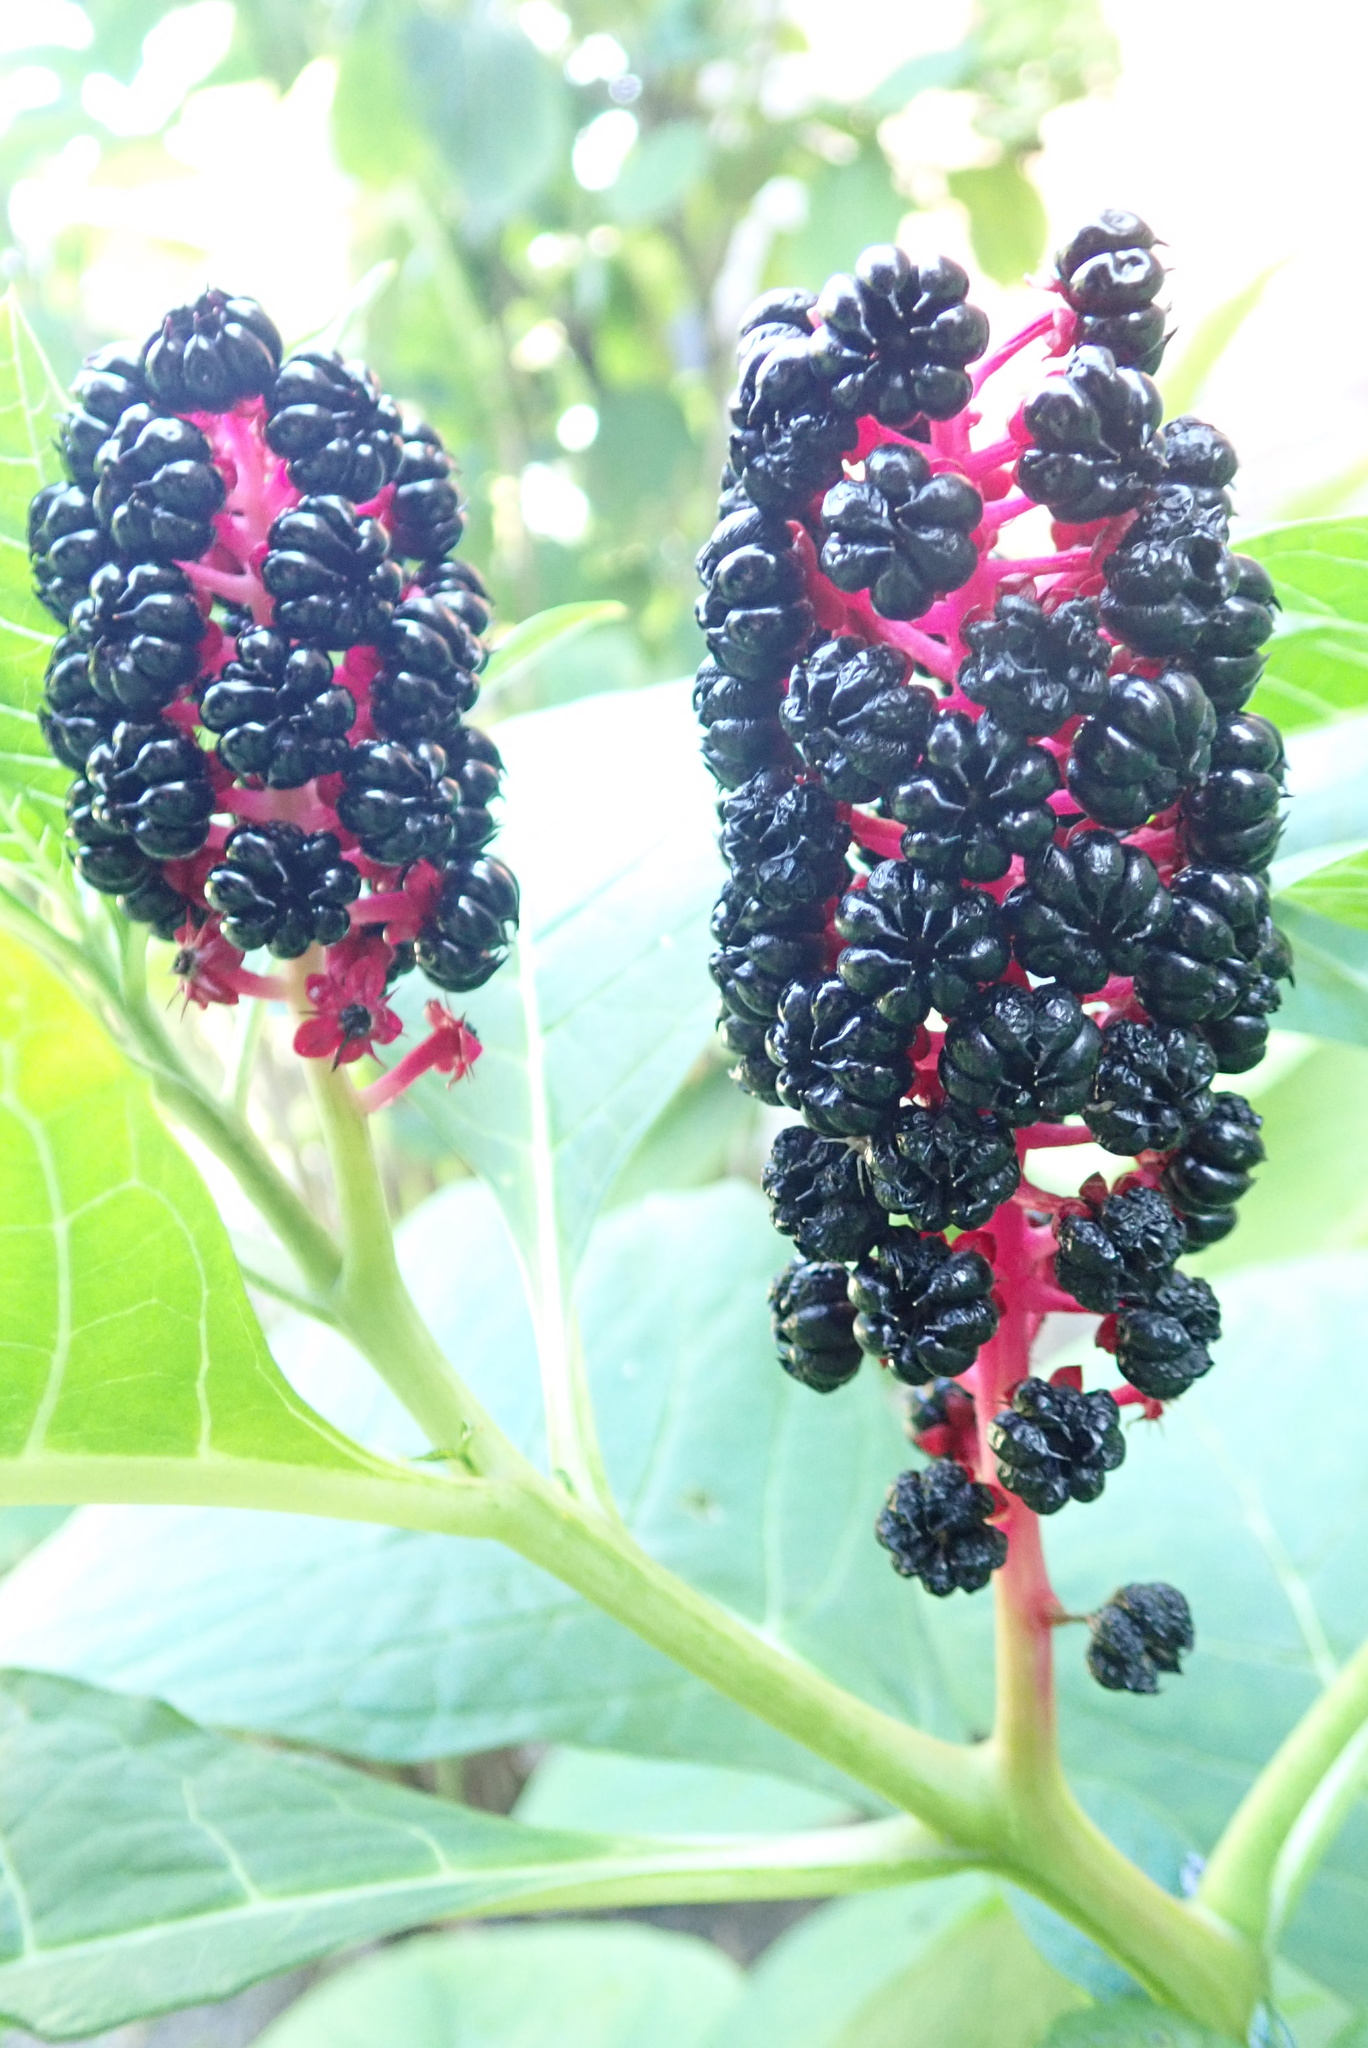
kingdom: Plantae
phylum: Tracheophyta
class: Magnoliopsida
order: Caryophyllales
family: Phytolaccaceae
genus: Phytolacca
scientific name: Phytolacca acinosa
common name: Indian pokeweed
